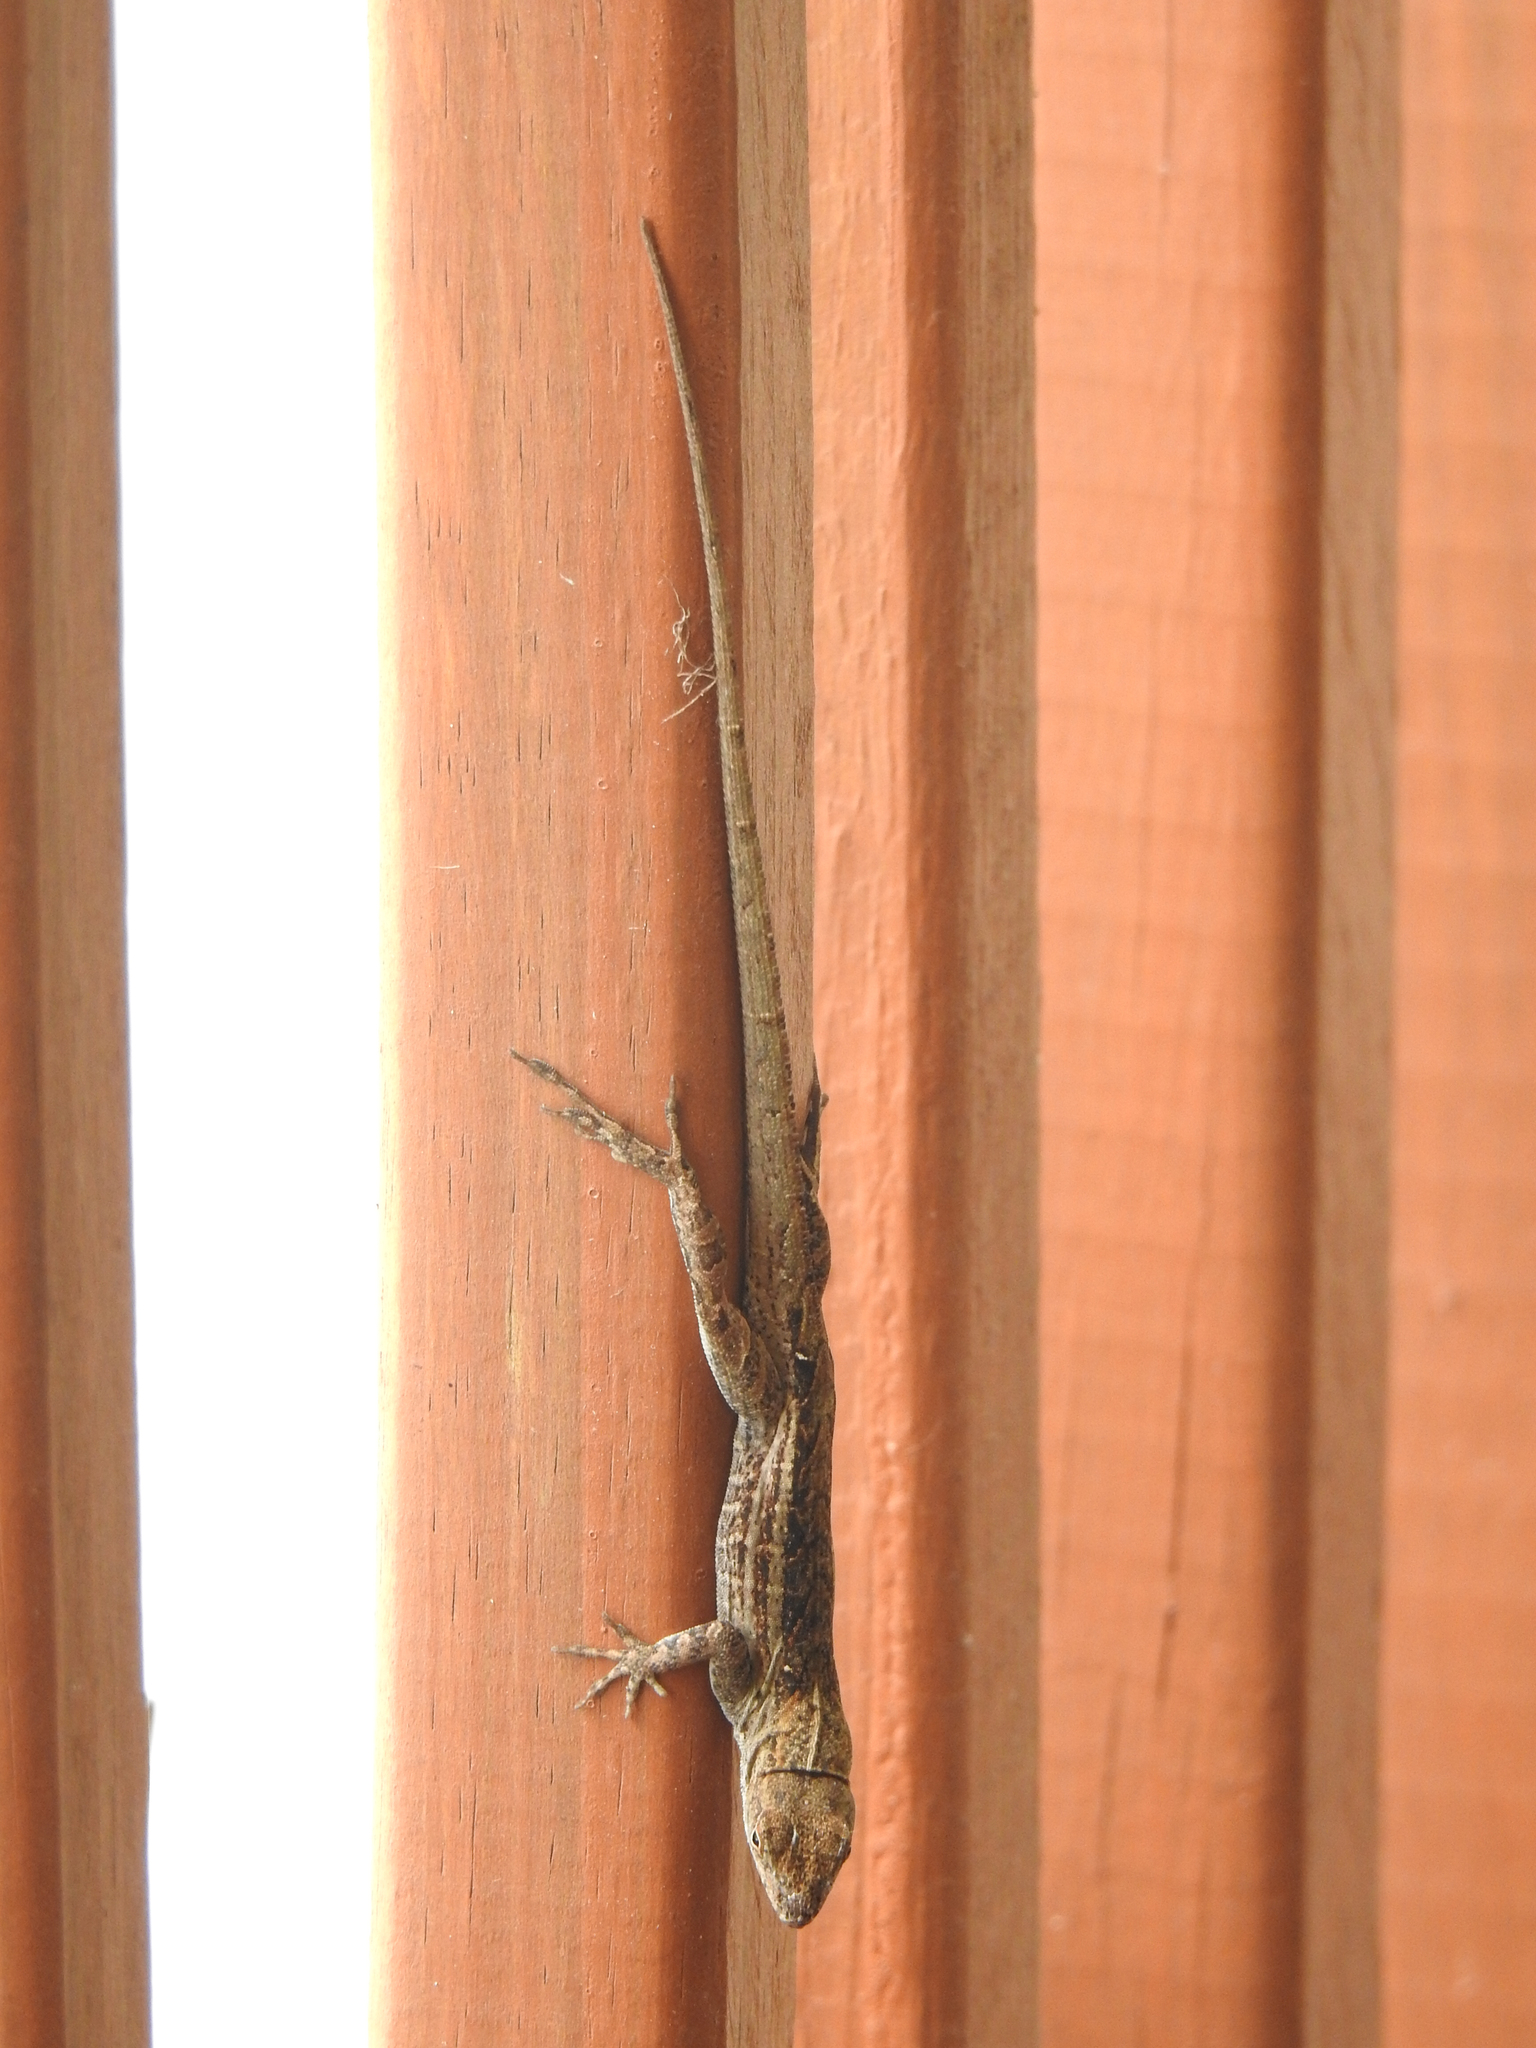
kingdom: Animalia
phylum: Chordata
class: Squamata
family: Dactyloidae
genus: Anolis
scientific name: Anolis sagrei
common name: Brown anole
